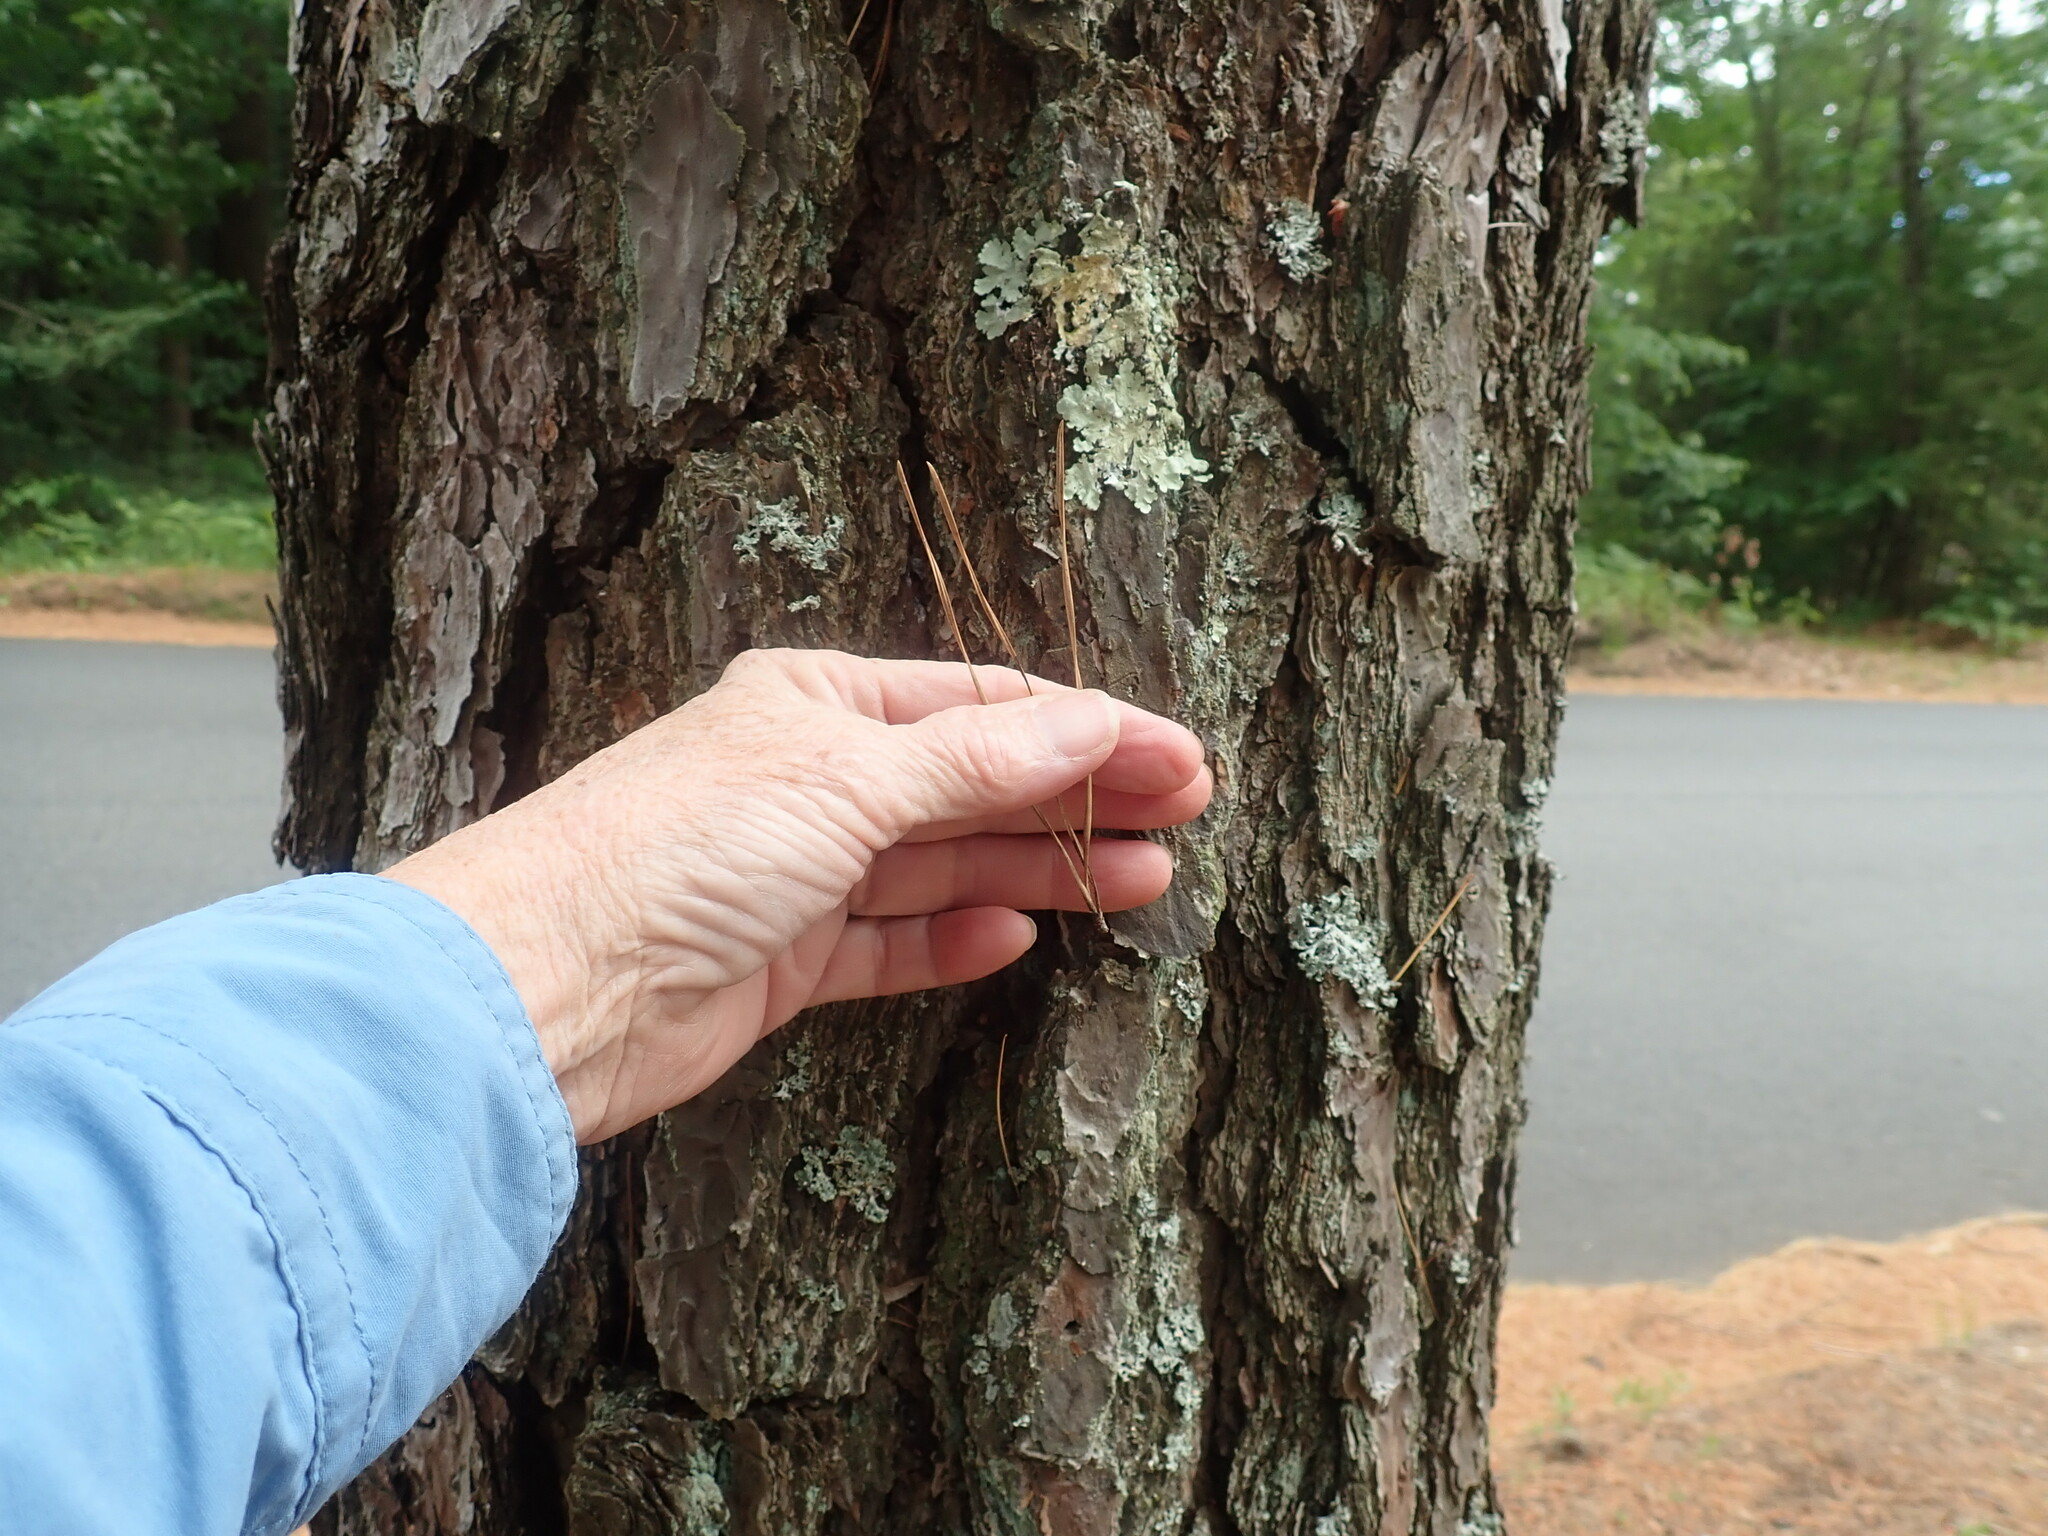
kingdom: Plantae
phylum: Tracheophyta
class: Pinopsida
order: Pinales
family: Pinaceae
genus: Pinus
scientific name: Pinus rigida
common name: Pitch pine
